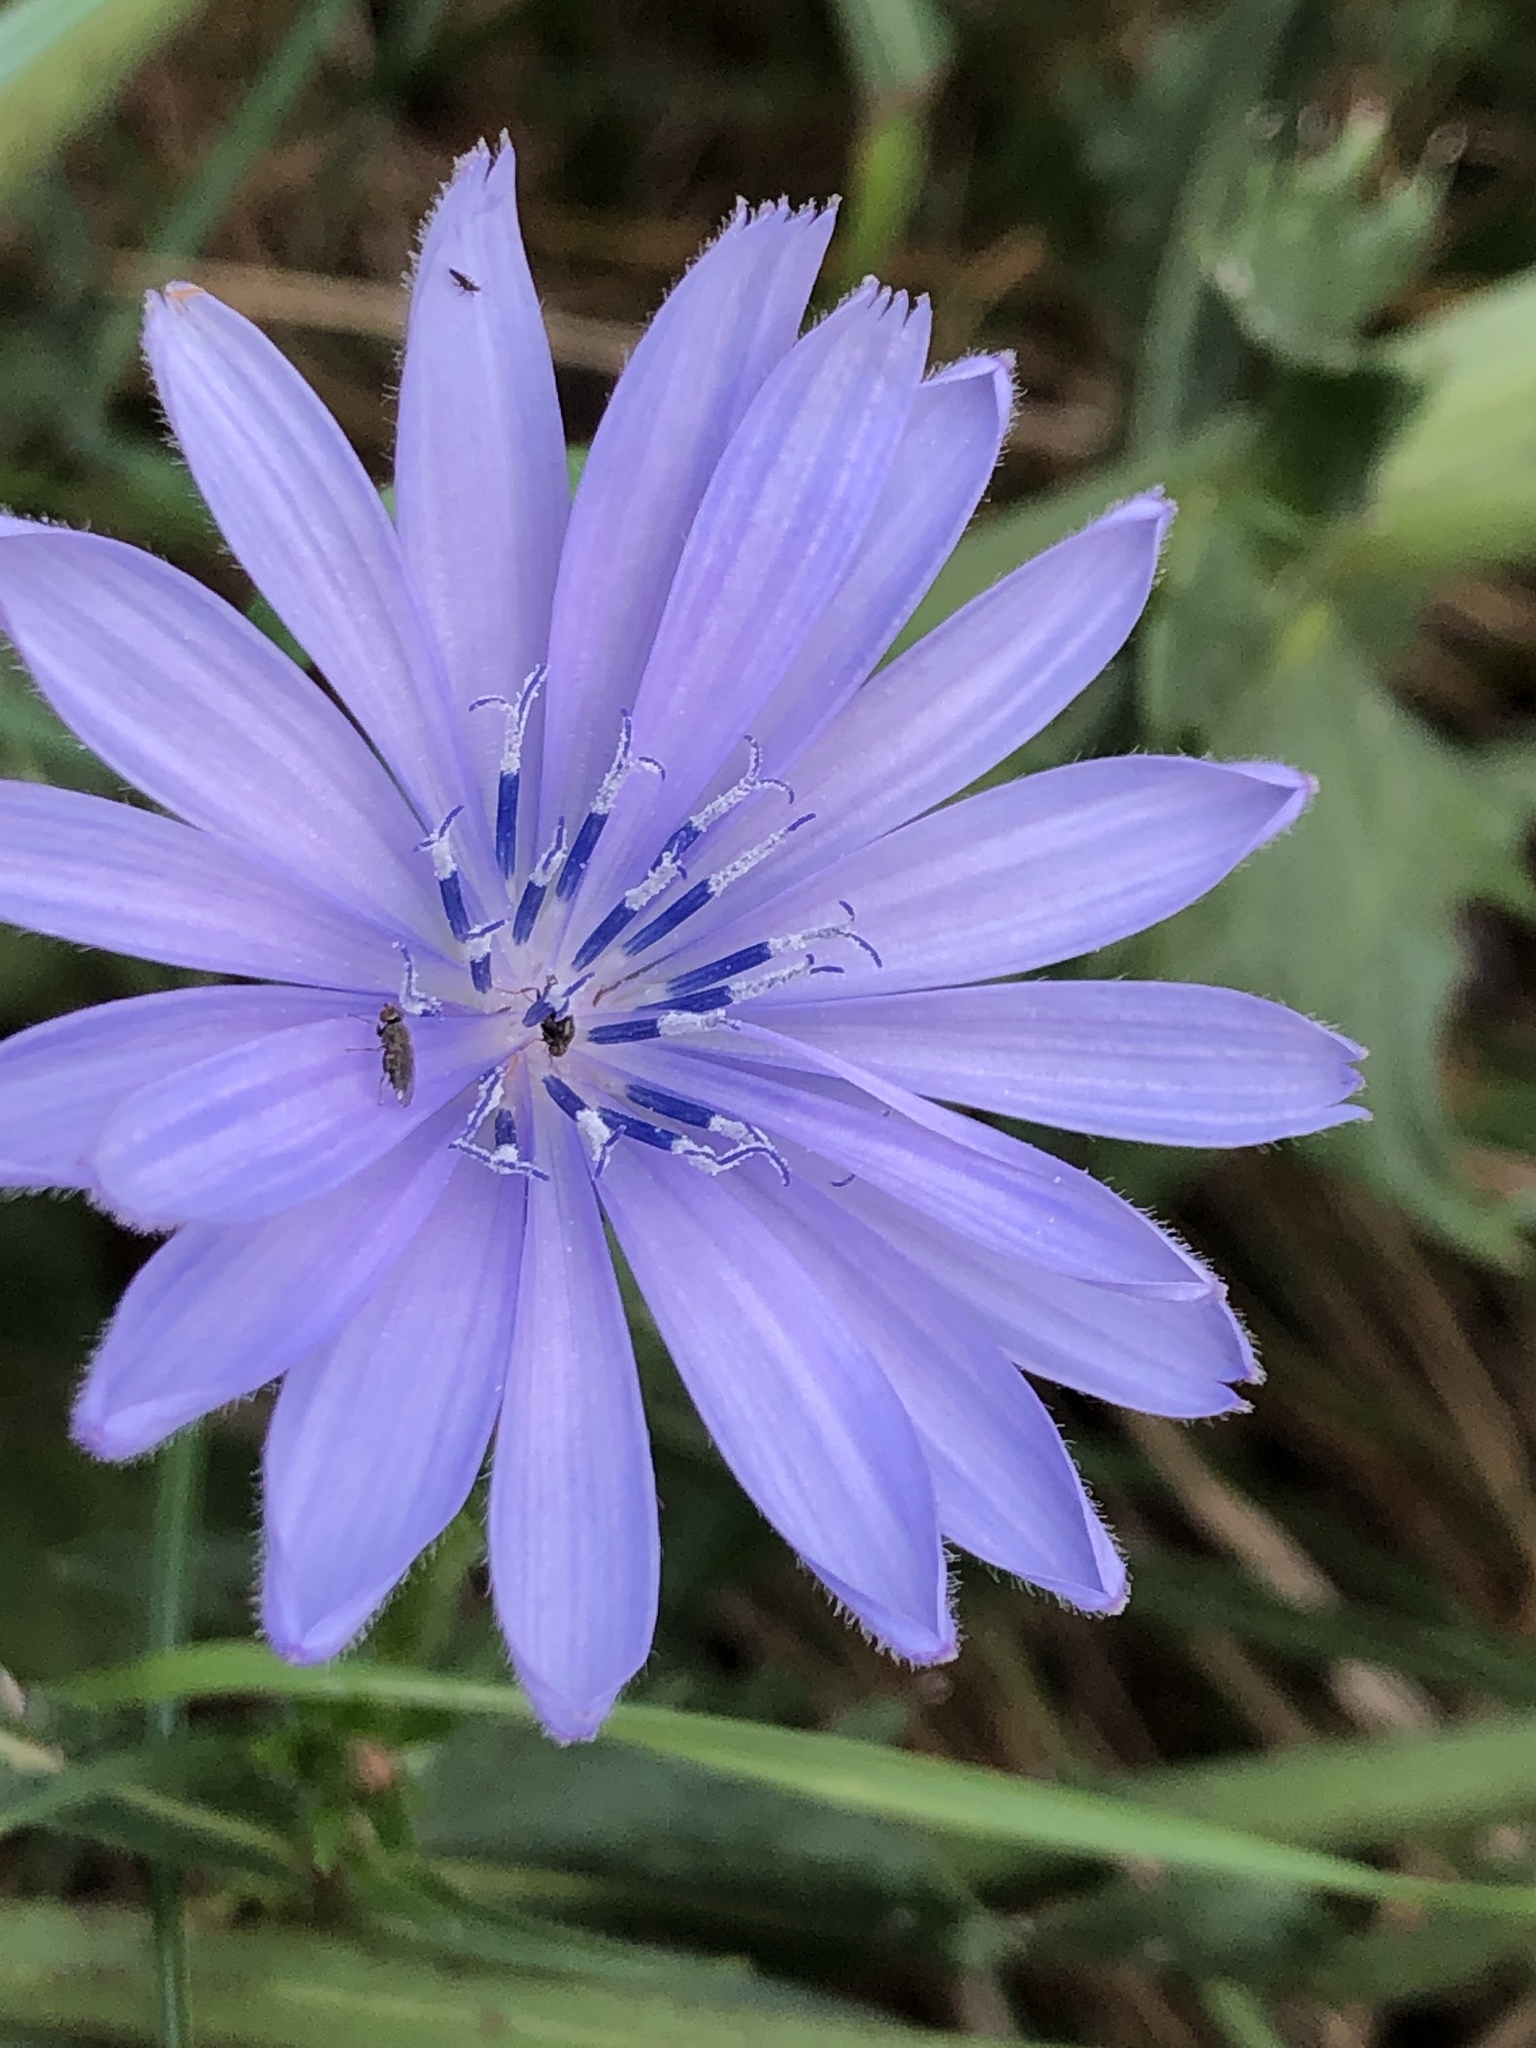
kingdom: Plantae
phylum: Tracheophyta
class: Magnoliopsida
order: Asterales
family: Asteraceae
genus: Cichorium
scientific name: Cichorium intybus
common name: Chicory
